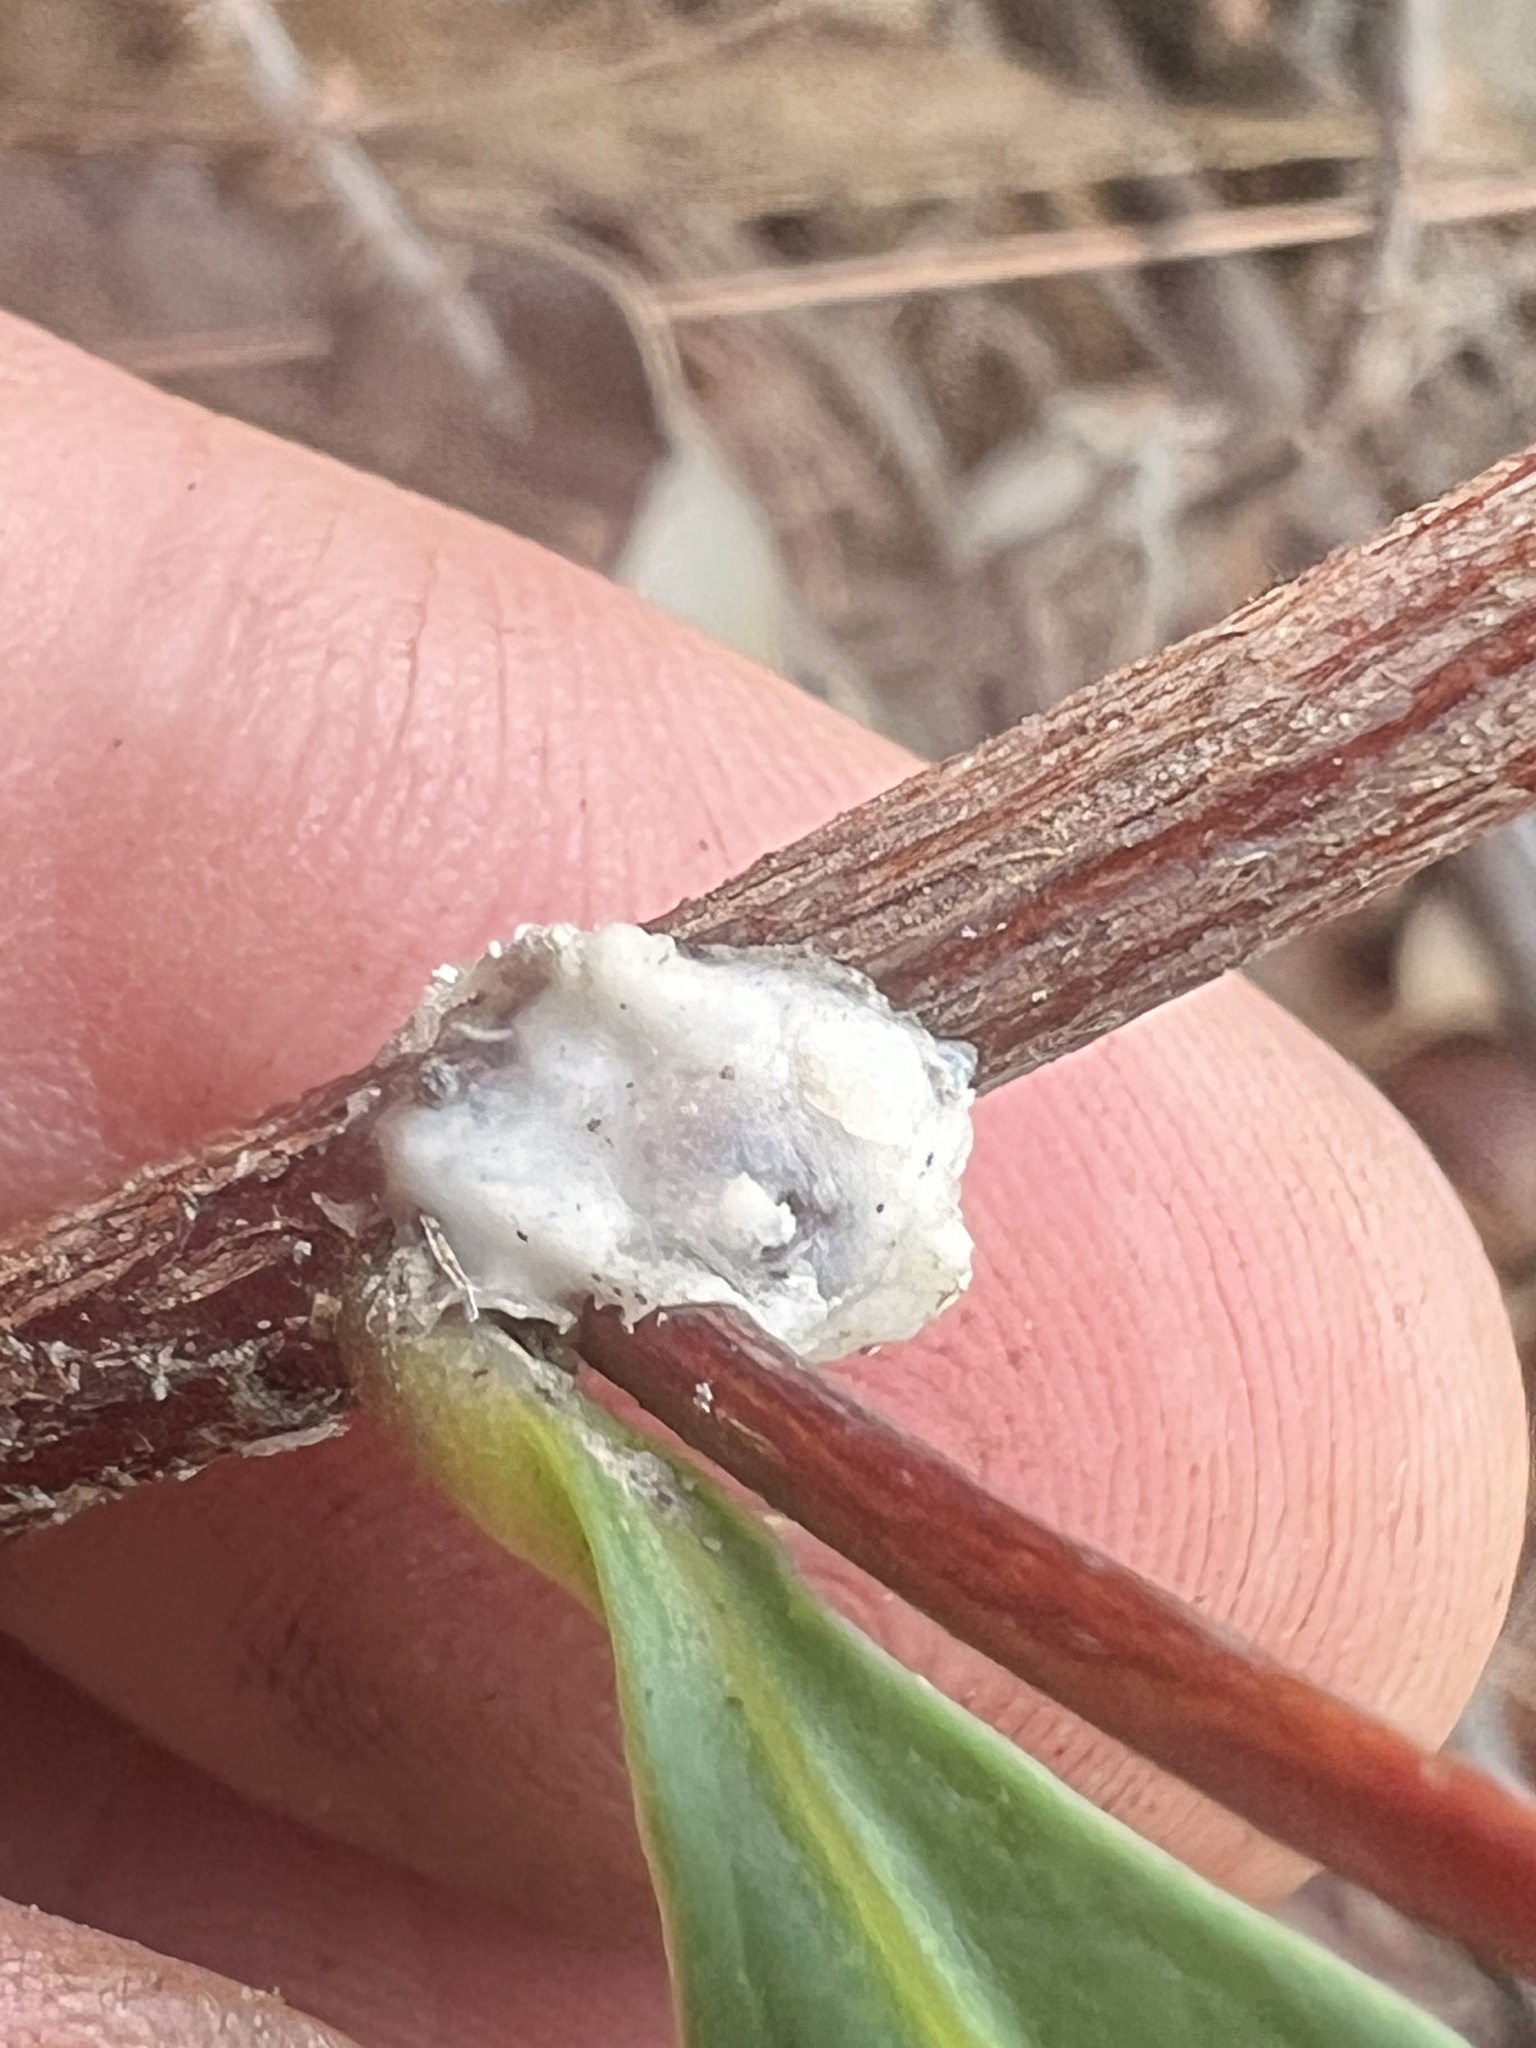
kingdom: Plantae
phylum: Tracheophyta
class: Magnoliopsida
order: Sapindales
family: Sapindaceae
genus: Dodonaea
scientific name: Dodonaea triquetra
